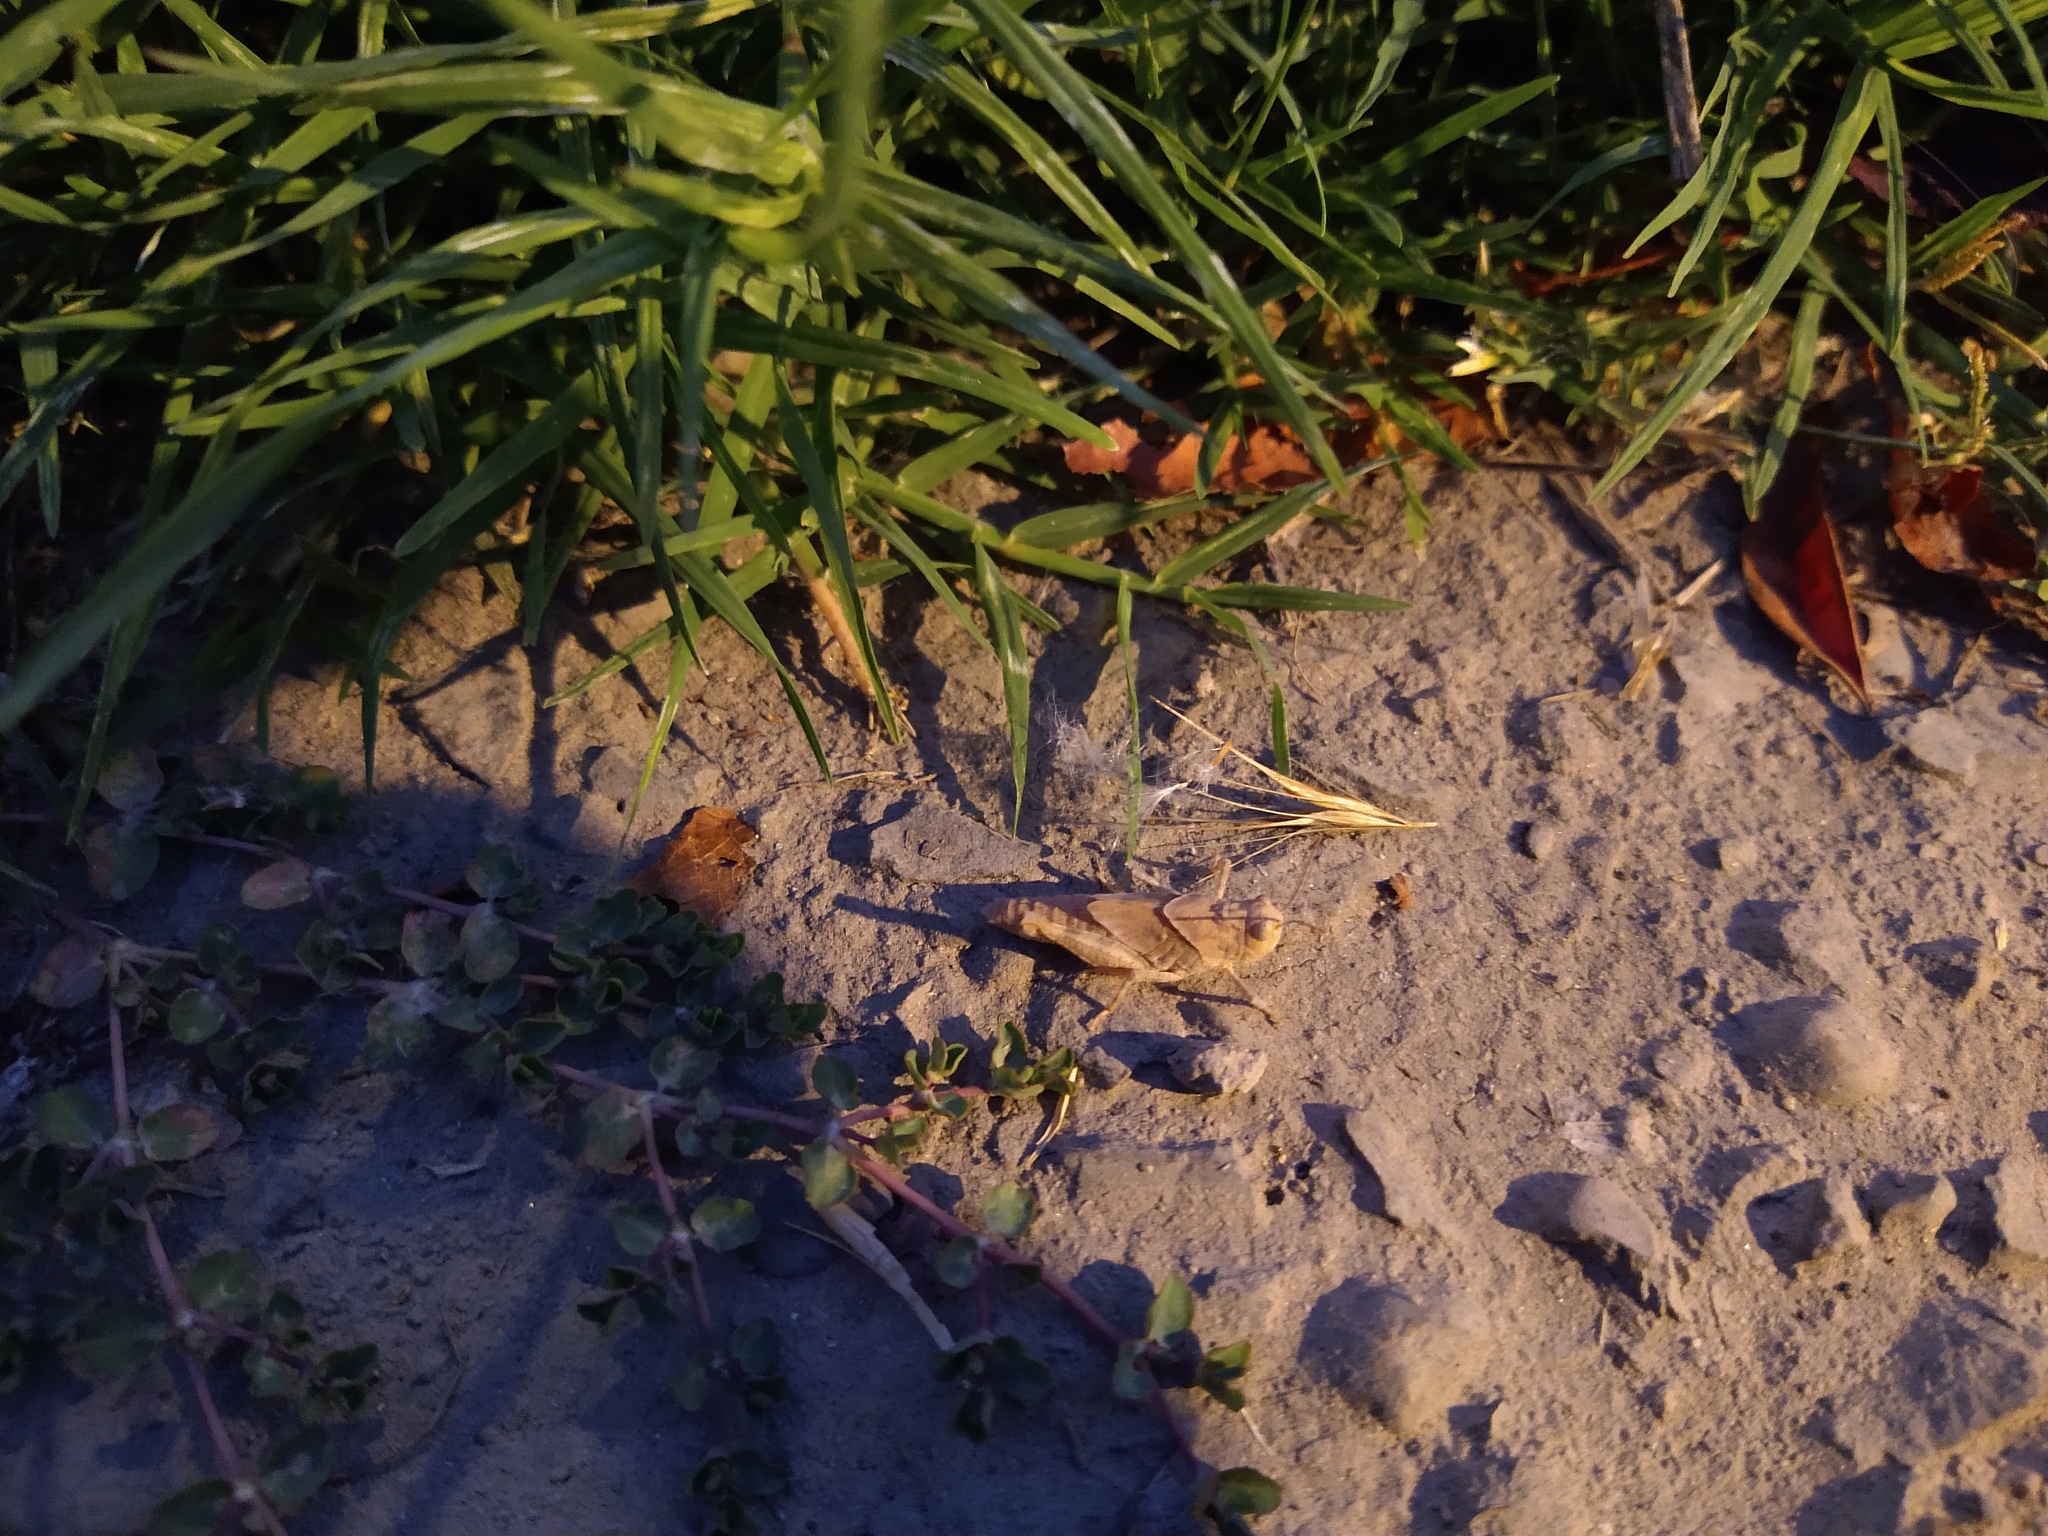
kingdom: Animalia
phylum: Arthropoda
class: Insecta
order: Orthoptera
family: Acrididae
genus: Trimerotropis
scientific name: Trimerotropis
